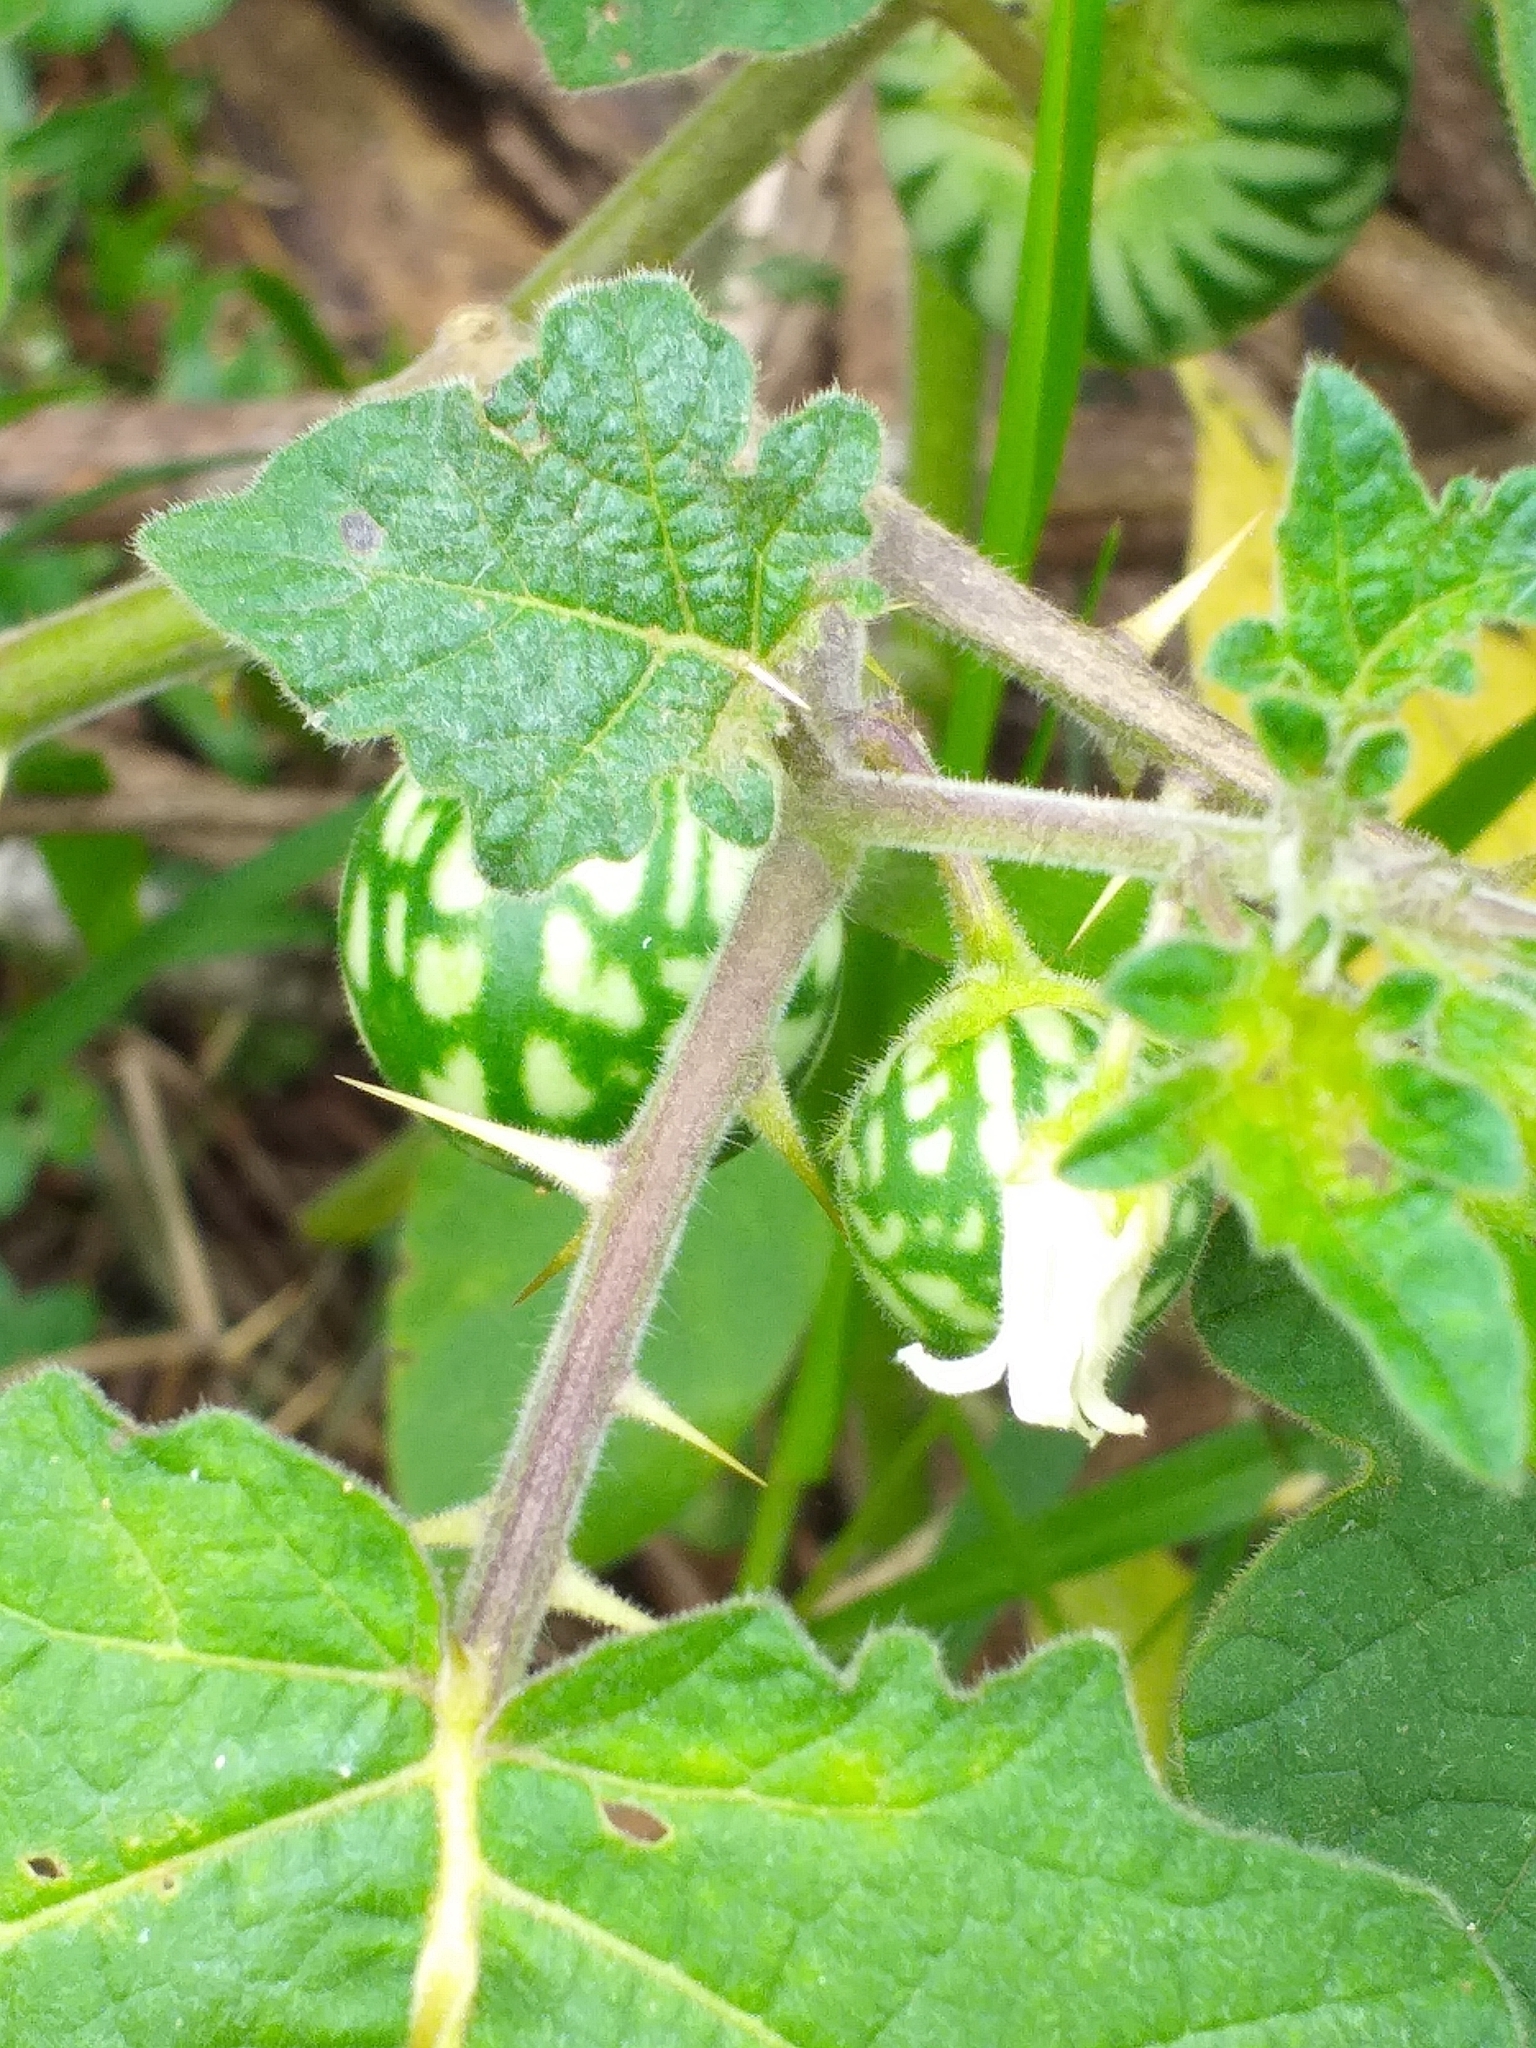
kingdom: Plantae
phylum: Tracheophyta
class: Magnoliopsida
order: Solanales
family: Solanaceae
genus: Solanum
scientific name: Solanum viarum
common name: Tropical soda apple
